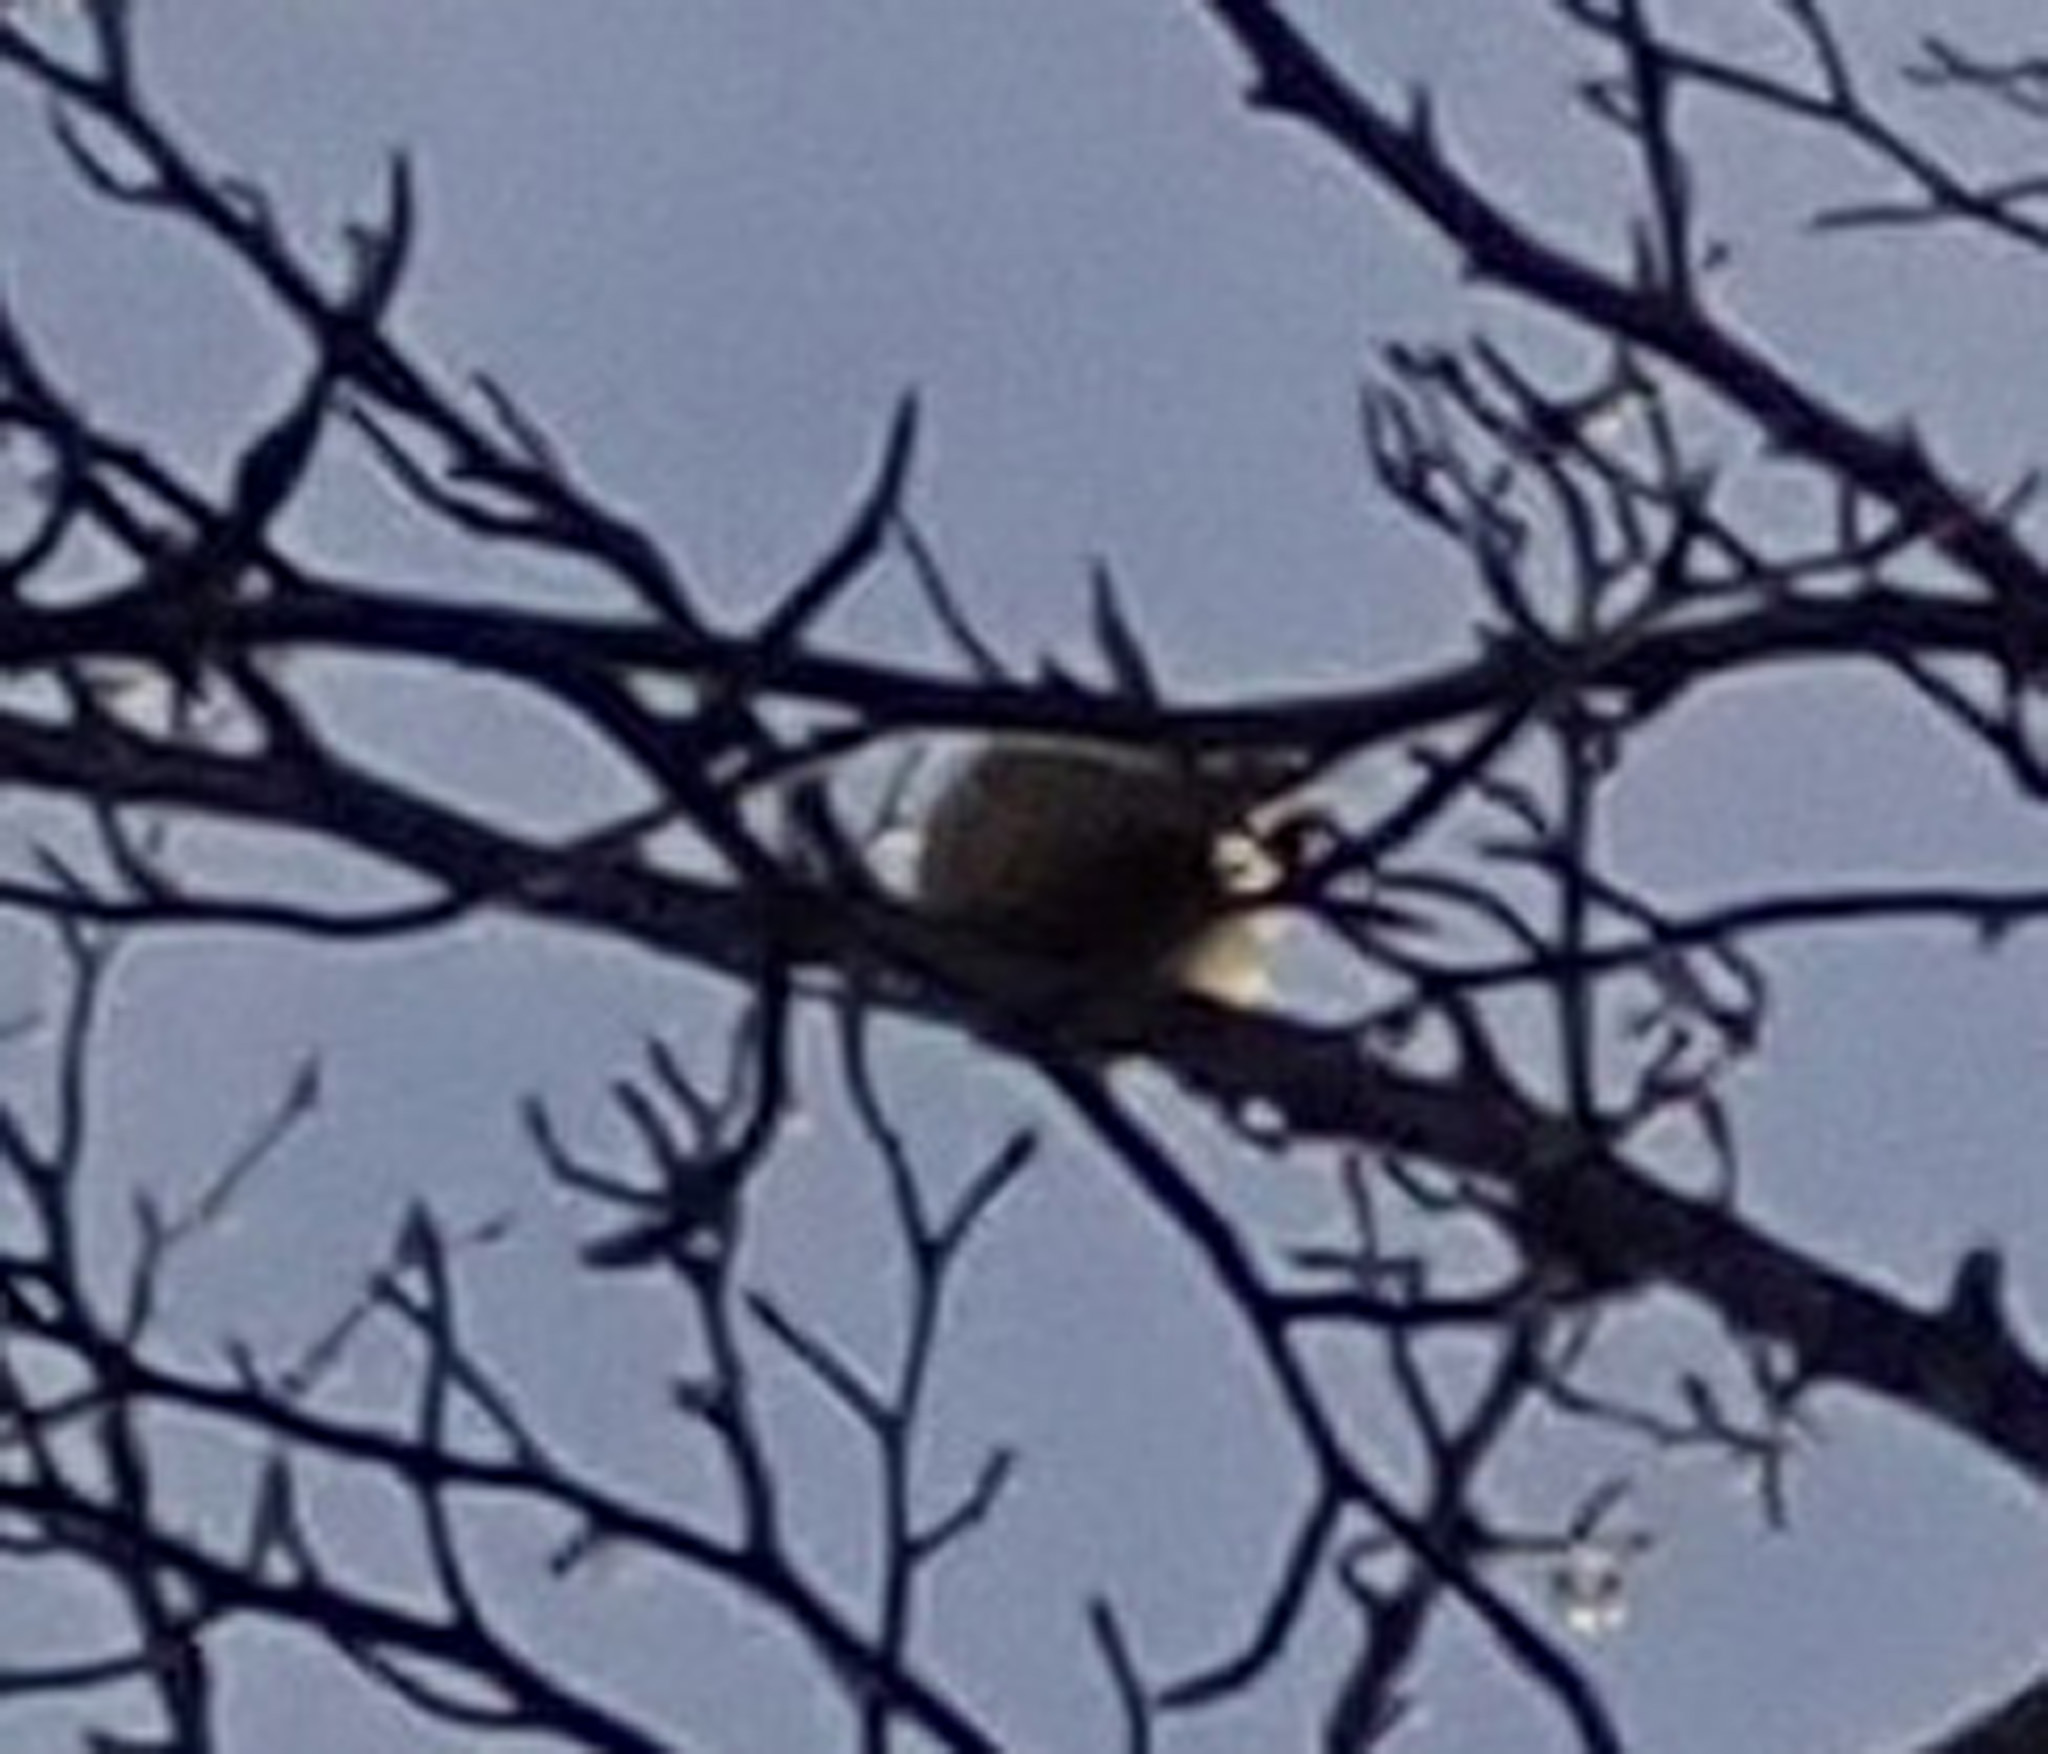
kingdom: Animalia
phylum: Chordata
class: Aves
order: Passeriformes
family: Paridae
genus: Parus
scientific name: Parus major
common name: Great tit
